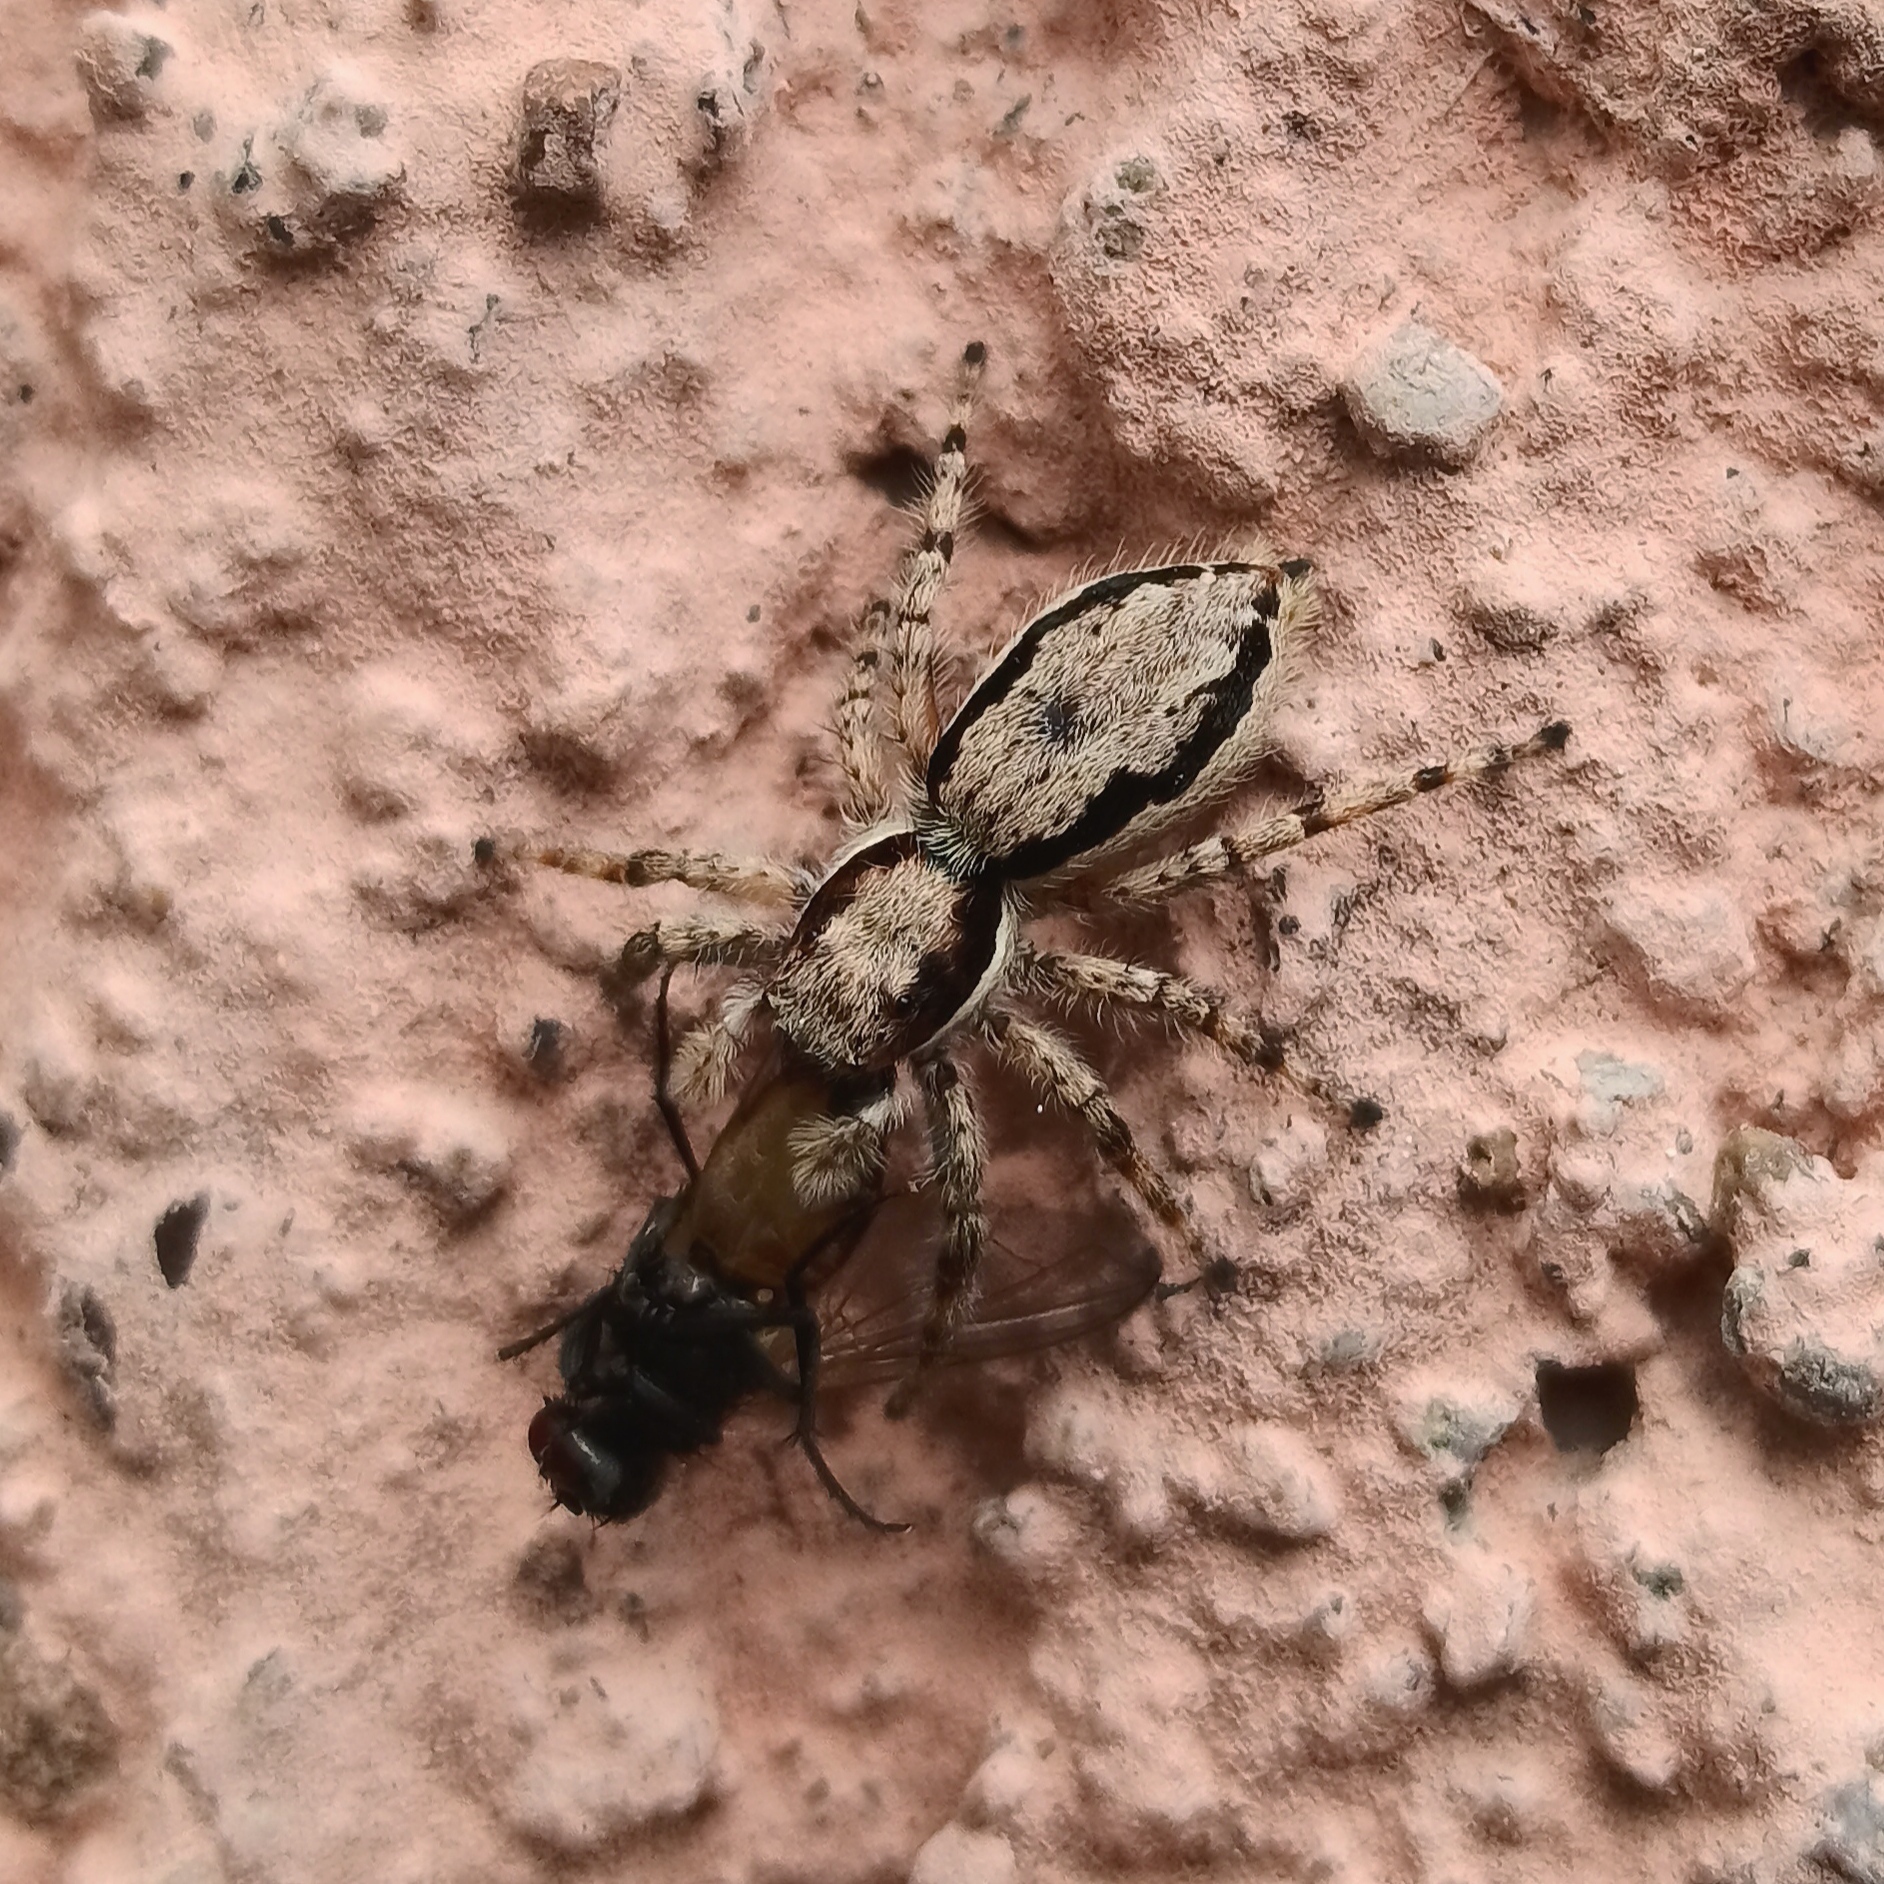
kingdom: Animalia
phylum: Arthropoda
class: Arachnida
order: Araneae
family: Salticidae
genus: Menemerus
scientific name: Menemerus bivittatus
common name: Gray wall jumper
